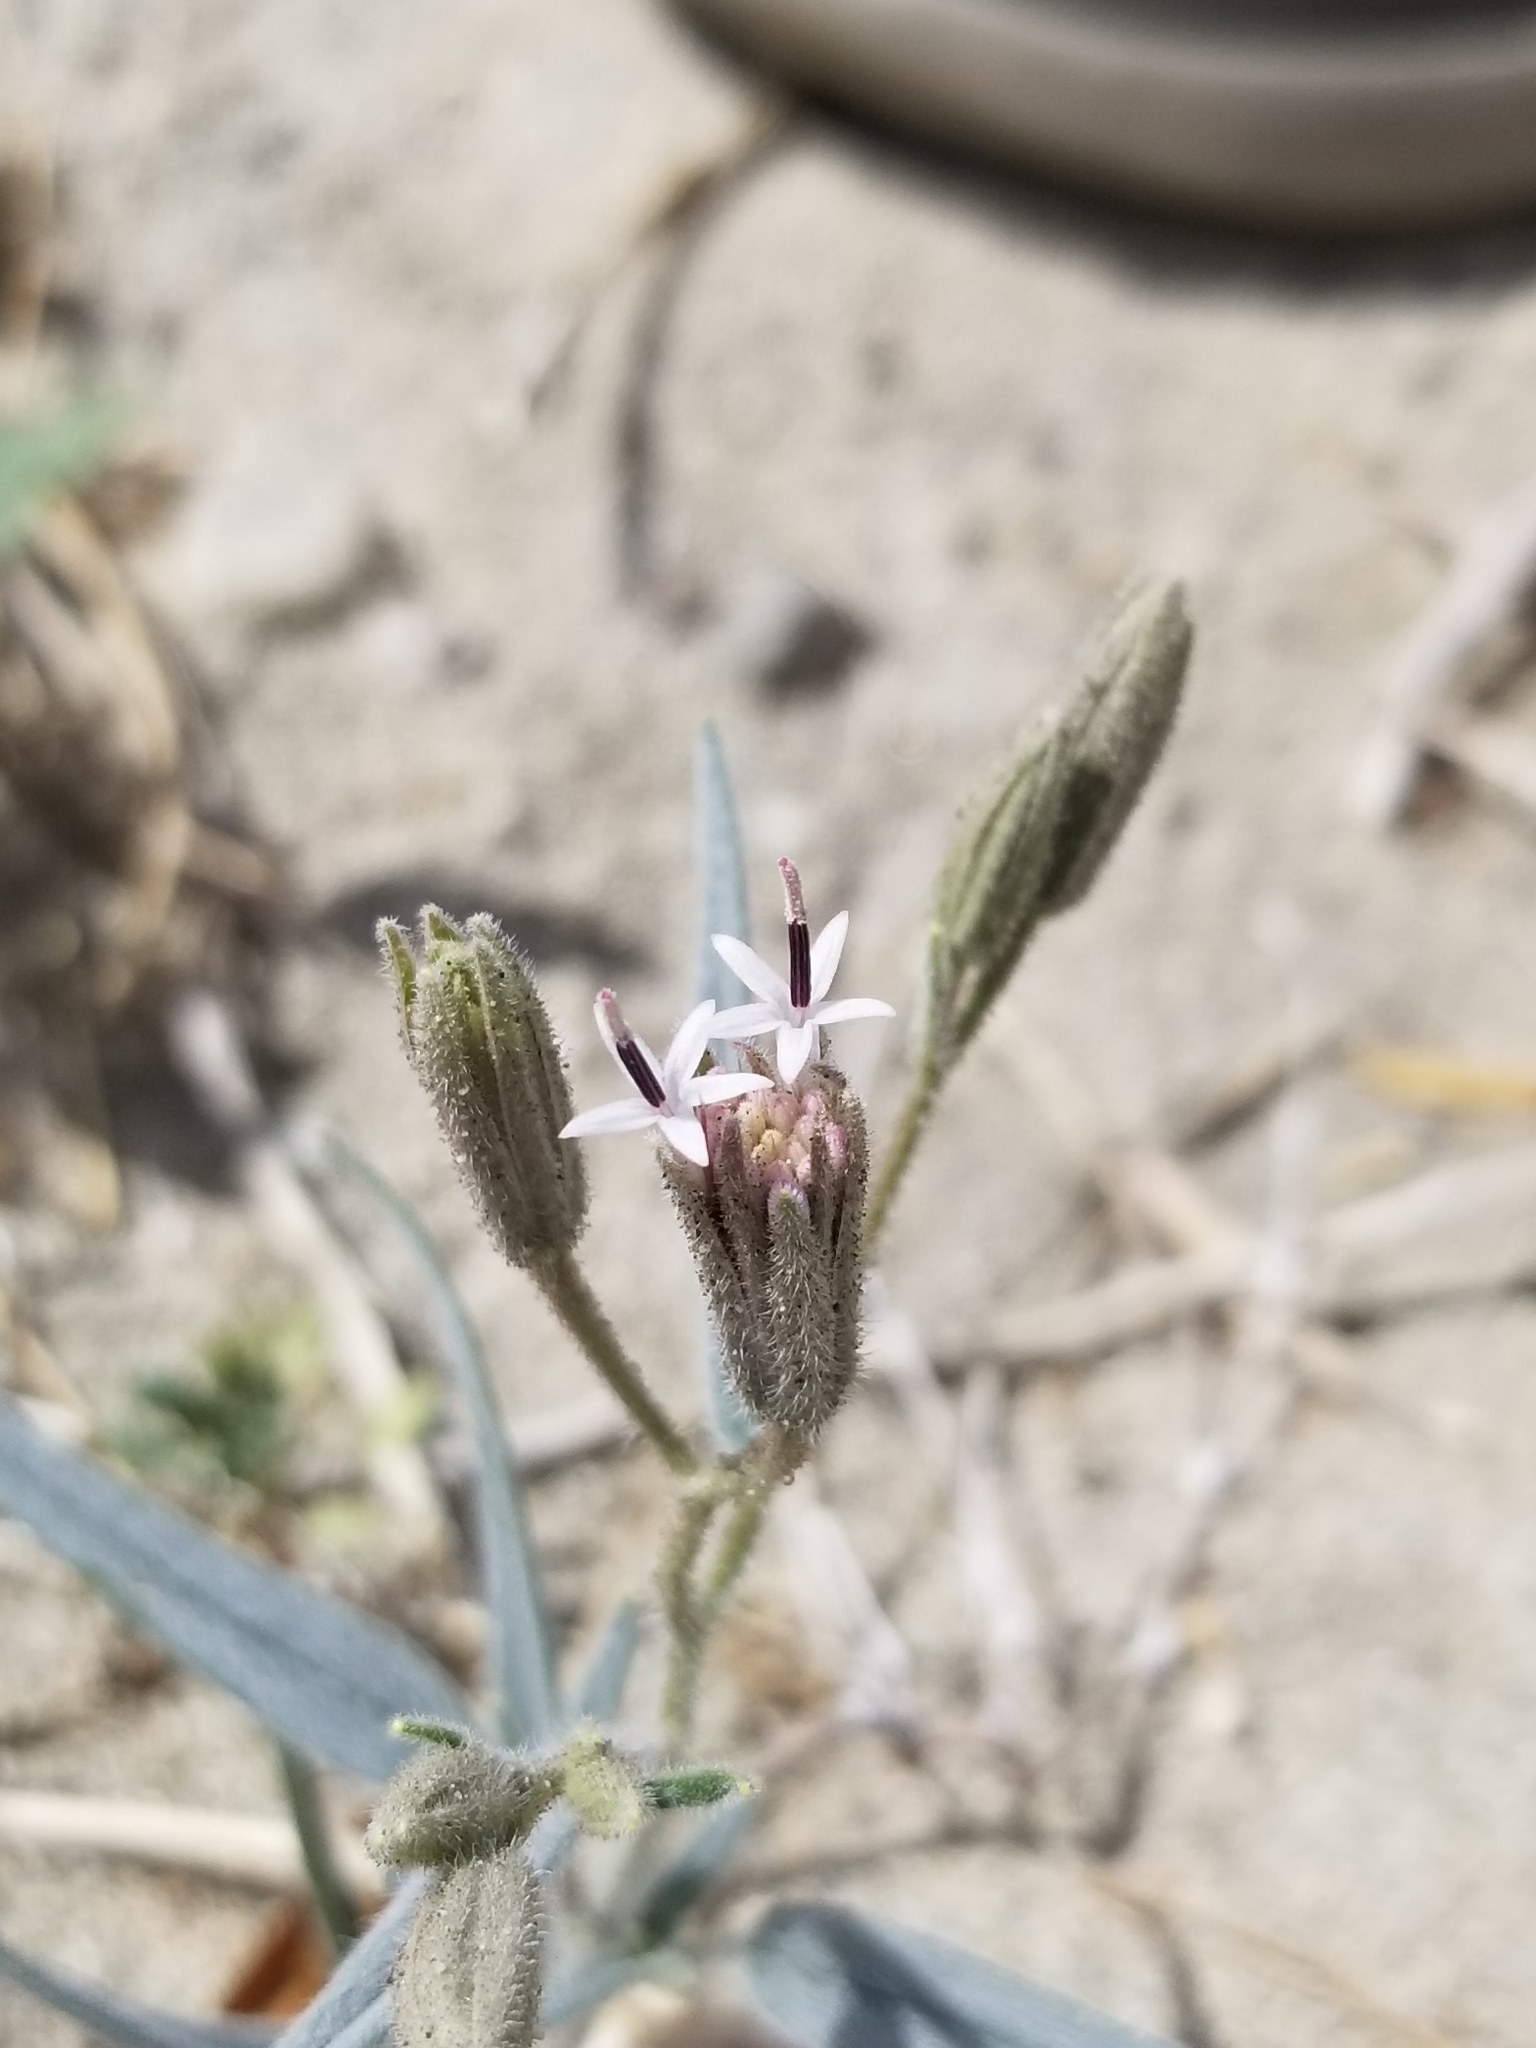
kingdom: Plantae
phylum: Tracheophyta
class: Magnoliopsida
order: Asterales
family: Asteraceae
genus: Palafoxia
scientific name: Palafoxia arida
